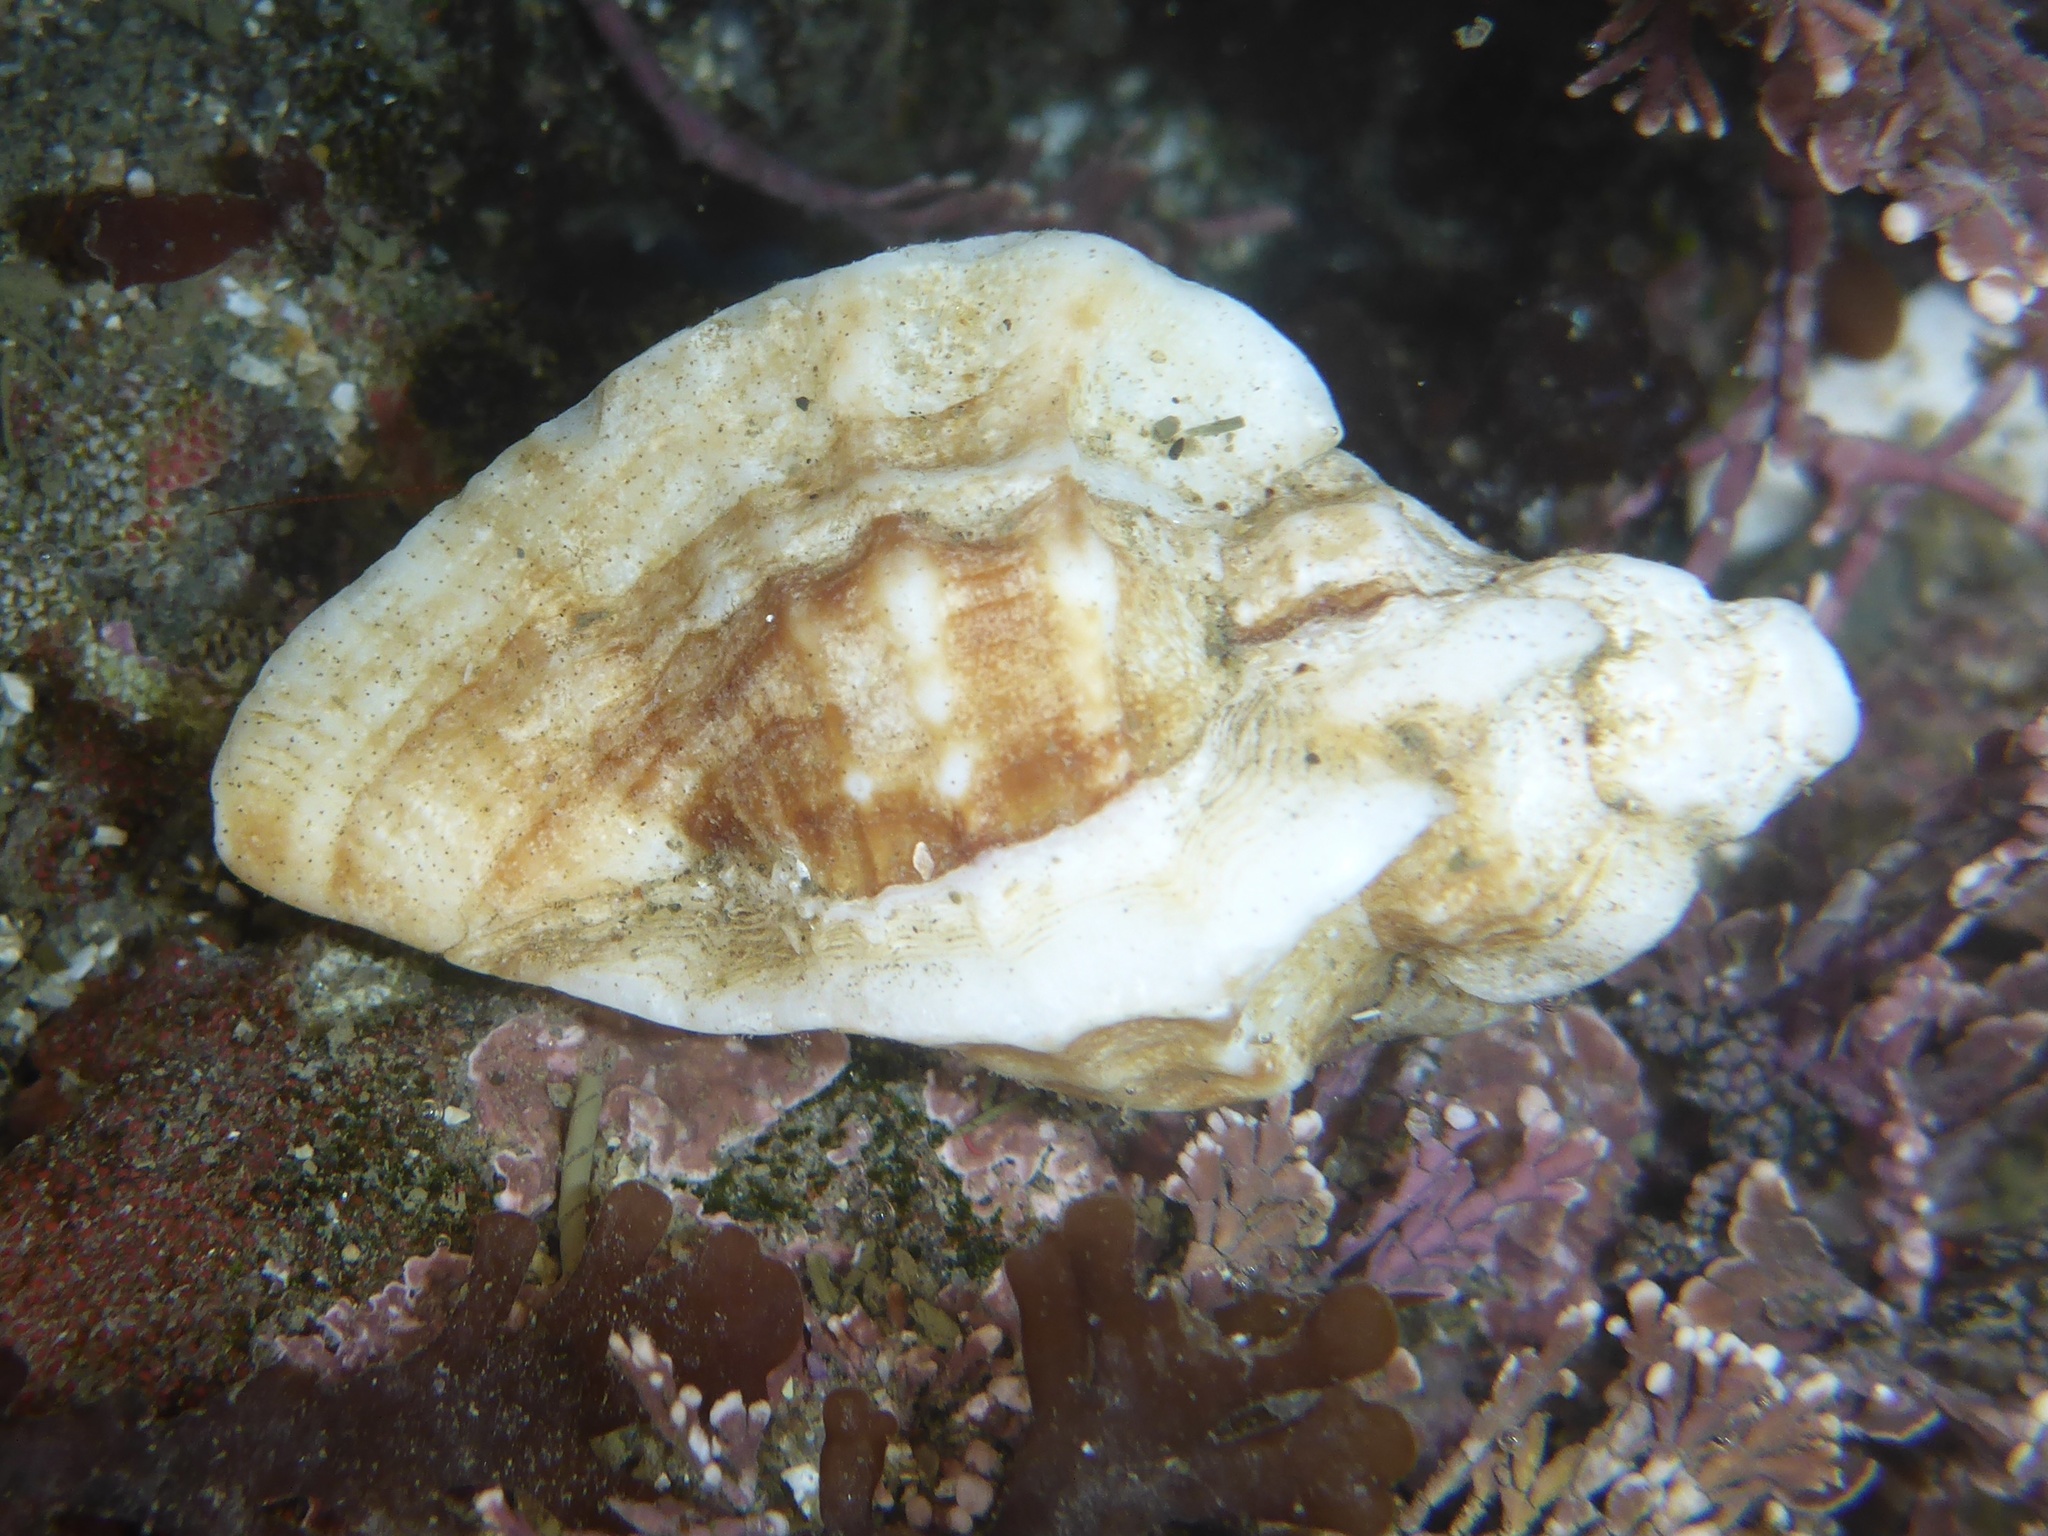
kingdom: Animalia
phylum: Mollusca
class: Gastropoda
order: Neogastropoda
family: Muricidae
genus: Ceratostoma
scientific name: Ceratostoma foliatum
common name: Foliate thorn purpura
